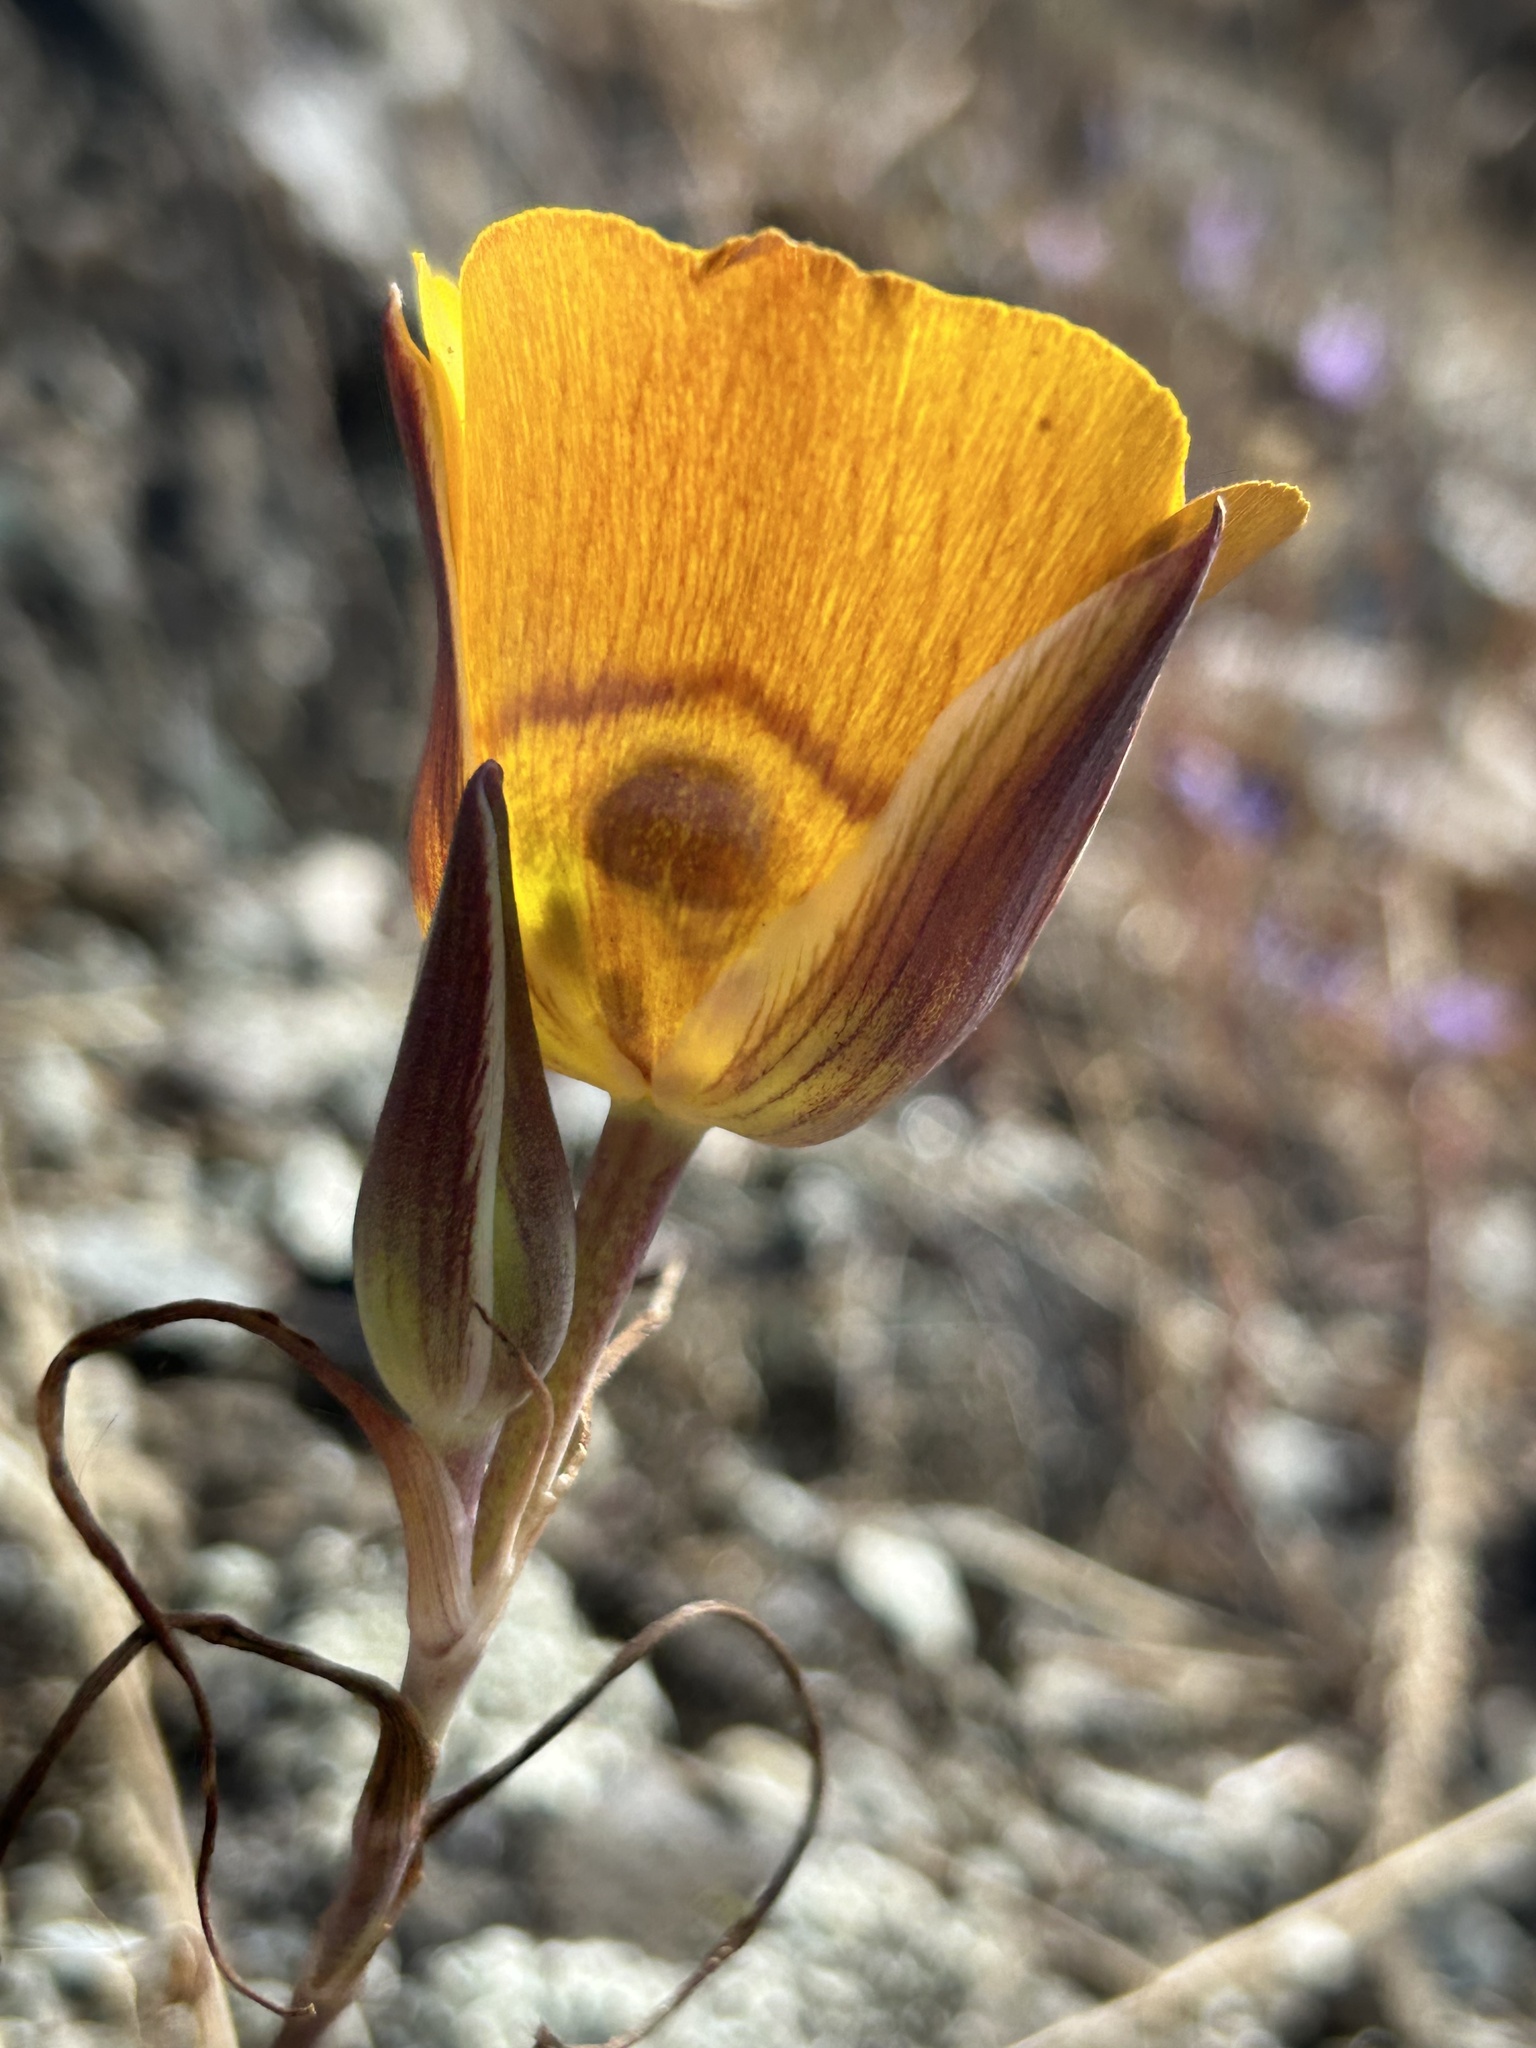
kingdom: Plantae
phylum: Tracheophyta
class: Liliopsida
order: Liliales
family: Liliaceae
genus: Calochortus
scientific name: Calochortus clavatus
